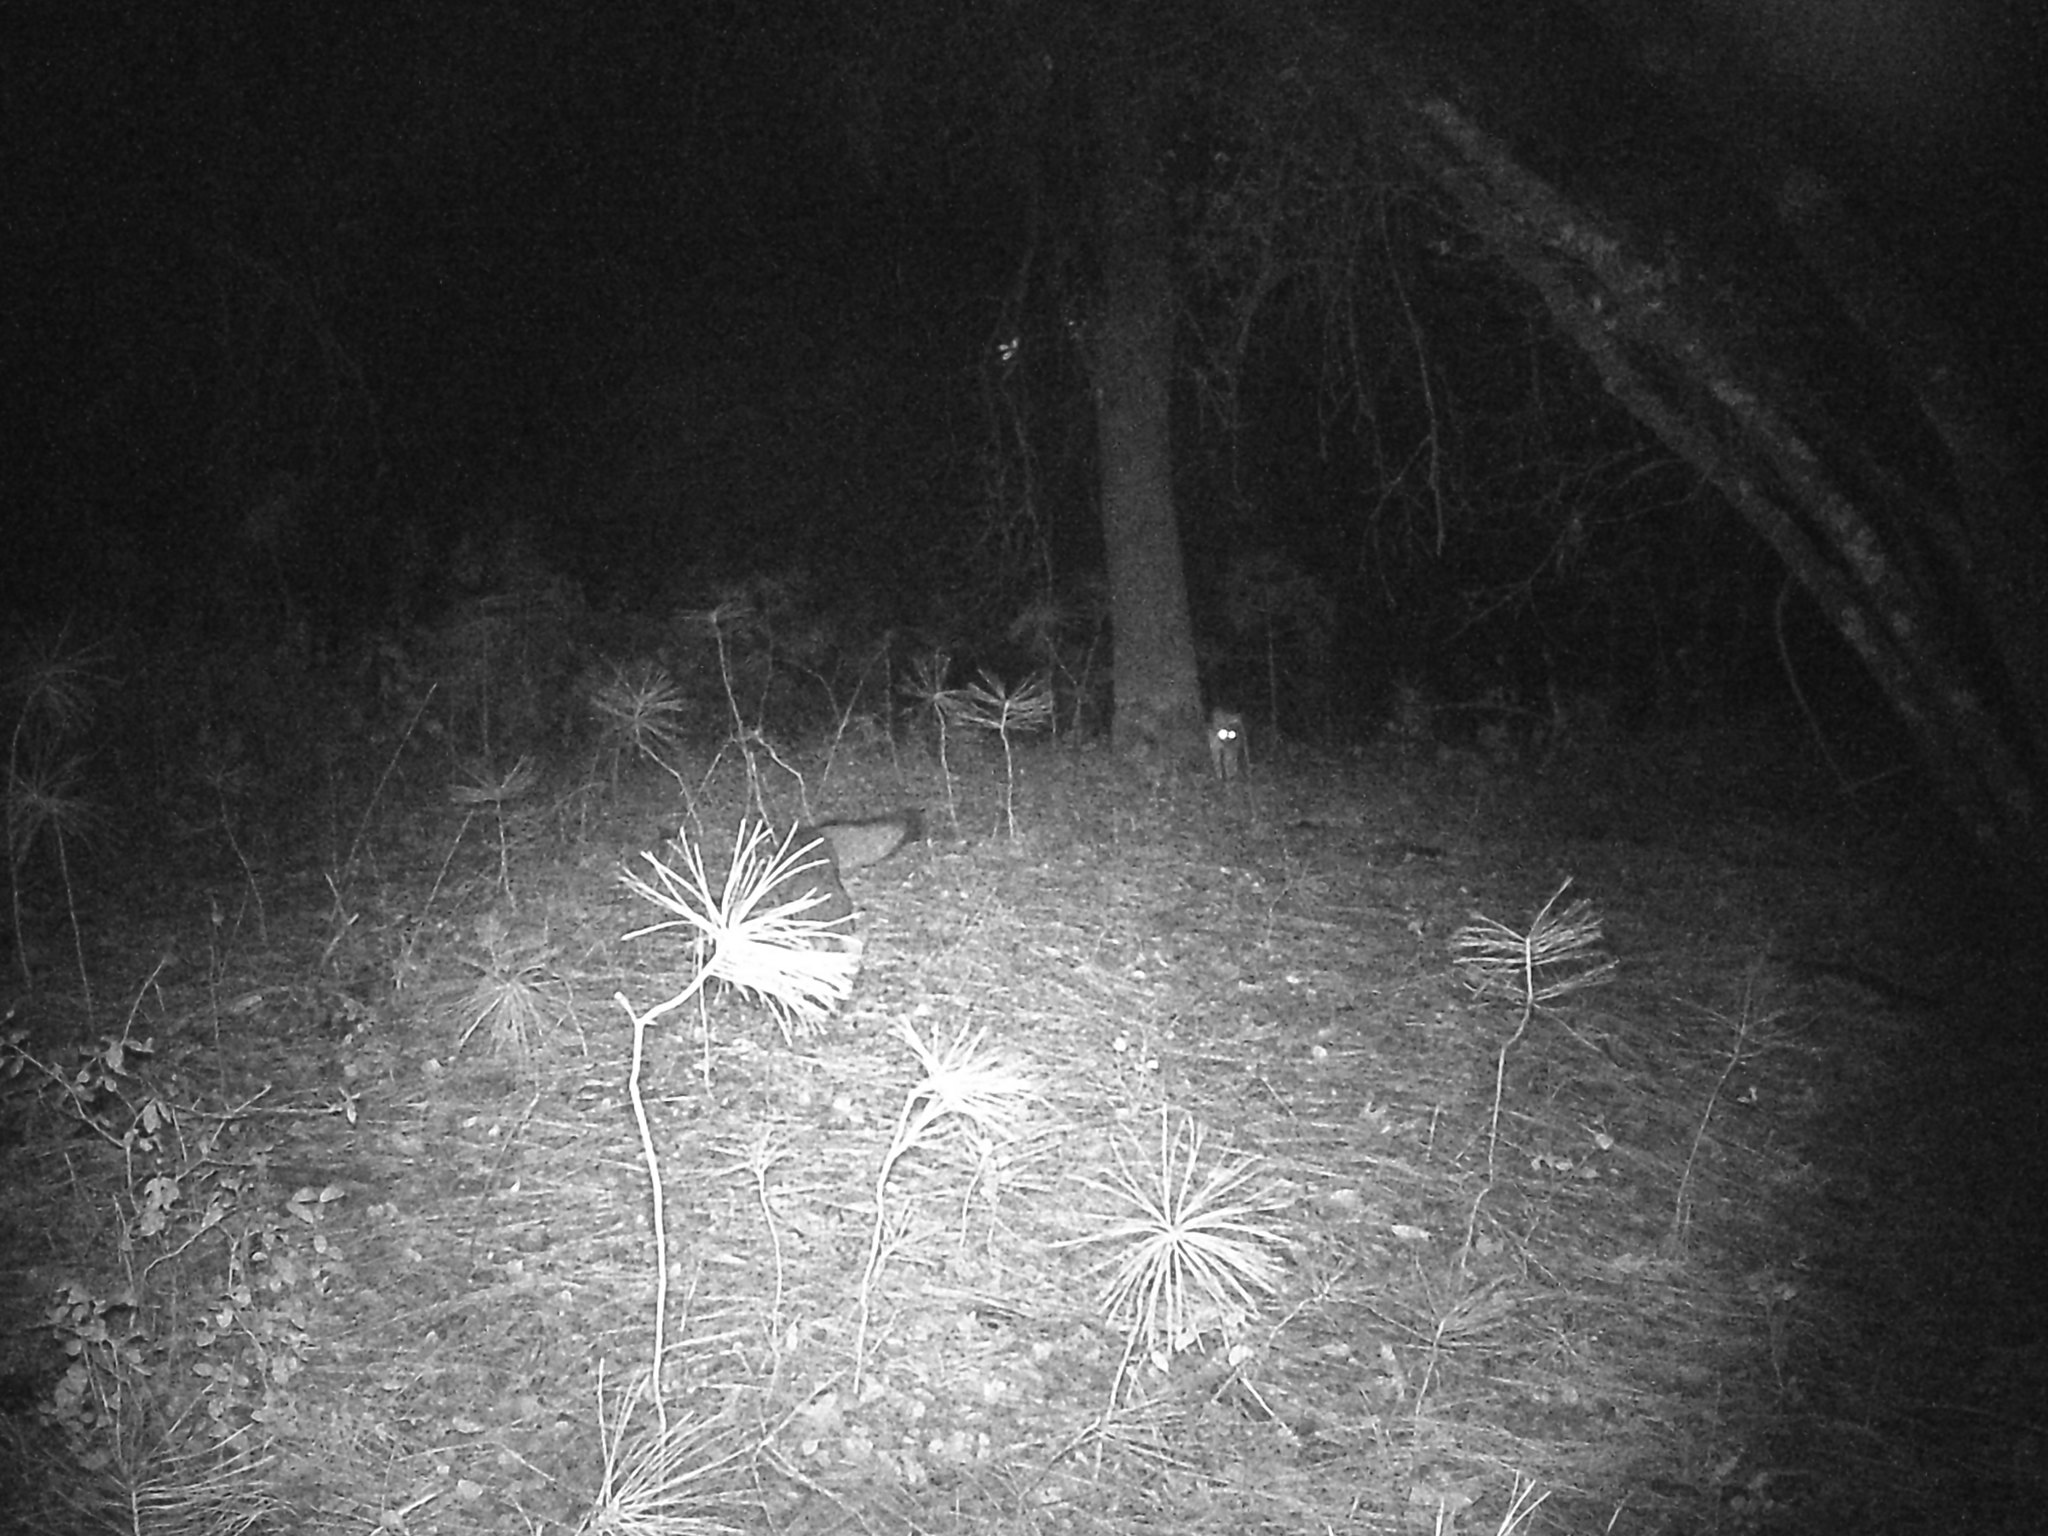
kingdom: Animalia
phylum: Chordata
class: Mammalia
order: Carnivora
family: Canidae
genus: Urocyon
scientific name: Urocyon cinereoargenteus
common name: Gray fox
